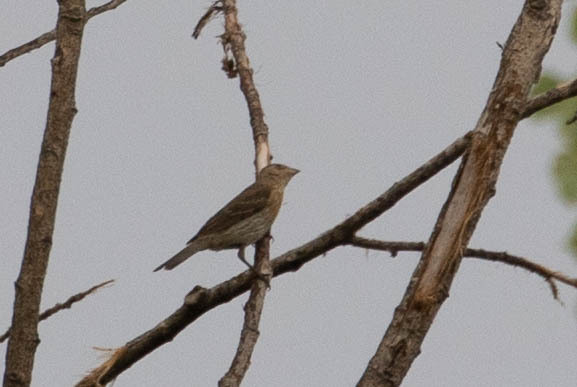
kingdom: Animalia
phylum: Chordata
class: Aves
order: Passeriformes
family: Fringillidae
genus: Haemorhous
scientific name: Haemorhous mexicanus
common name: House finch
